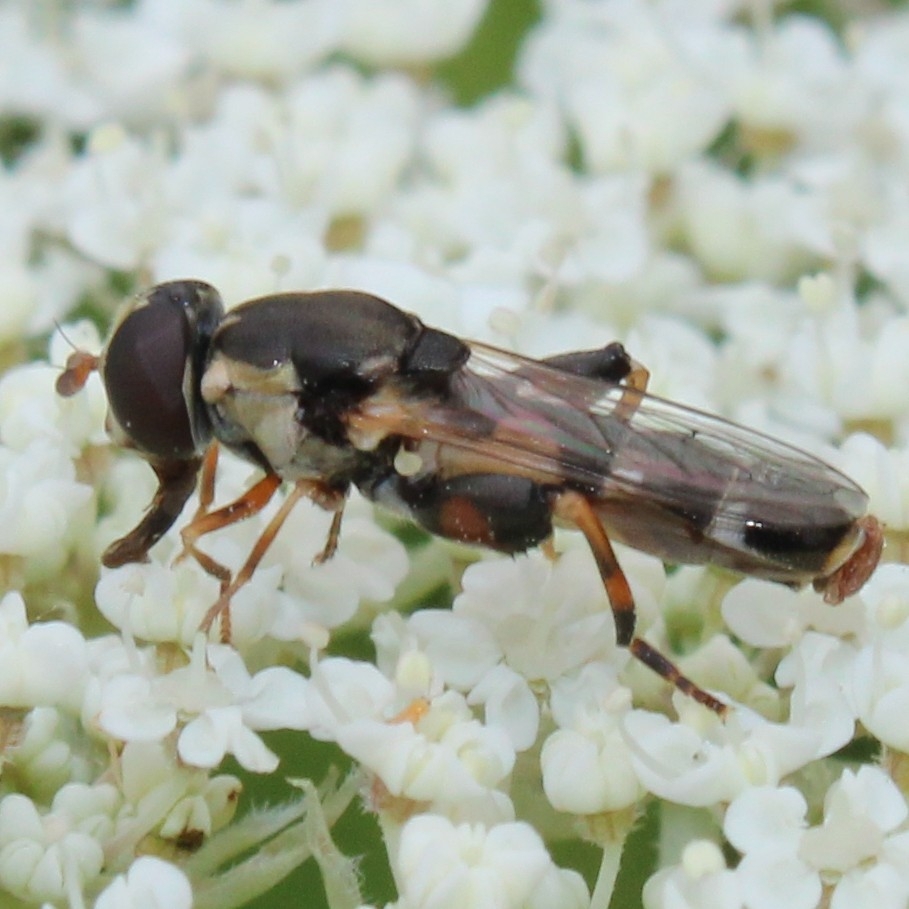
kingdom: Animalia
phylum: Arthropoda
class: Insecta
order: Diptera
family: Syrphidae
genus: Syritta
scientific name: Syritta pipiens
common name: Hover fly
